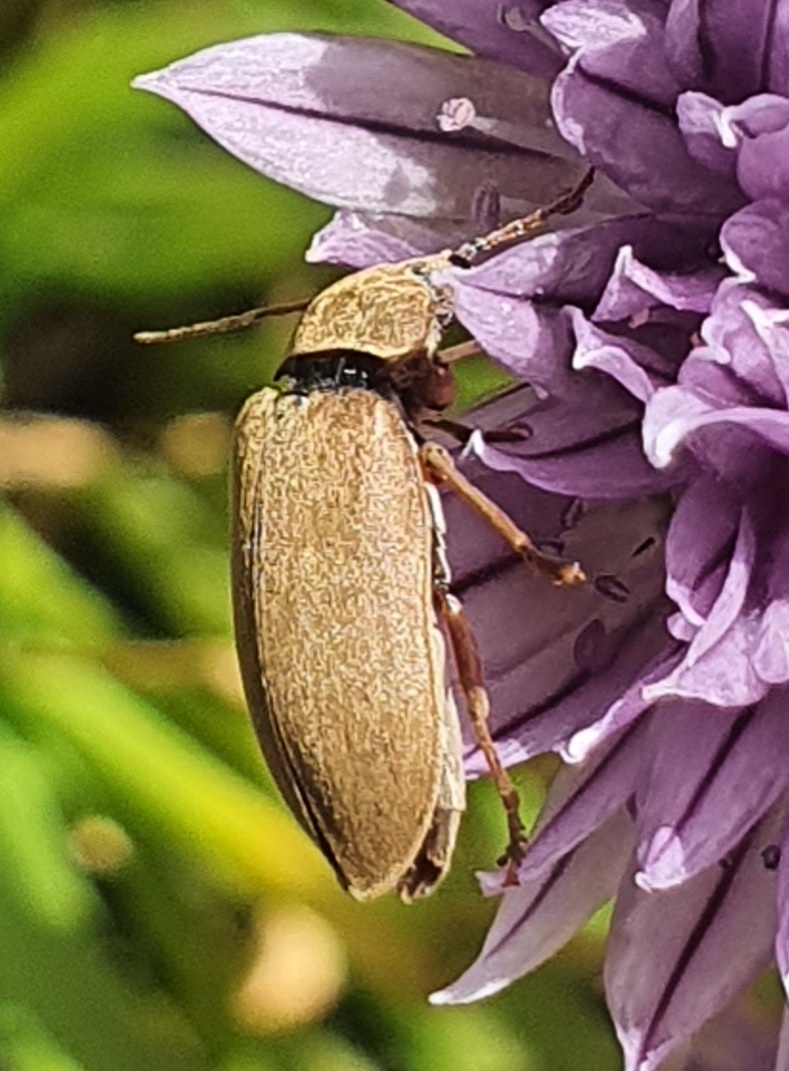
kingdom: Animalia
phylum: Arthropoda
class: Insecta
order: Coleoptera
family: Dascillidae
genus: Dascillus
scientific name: Dascillus cervinus
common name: Orchid beetle
